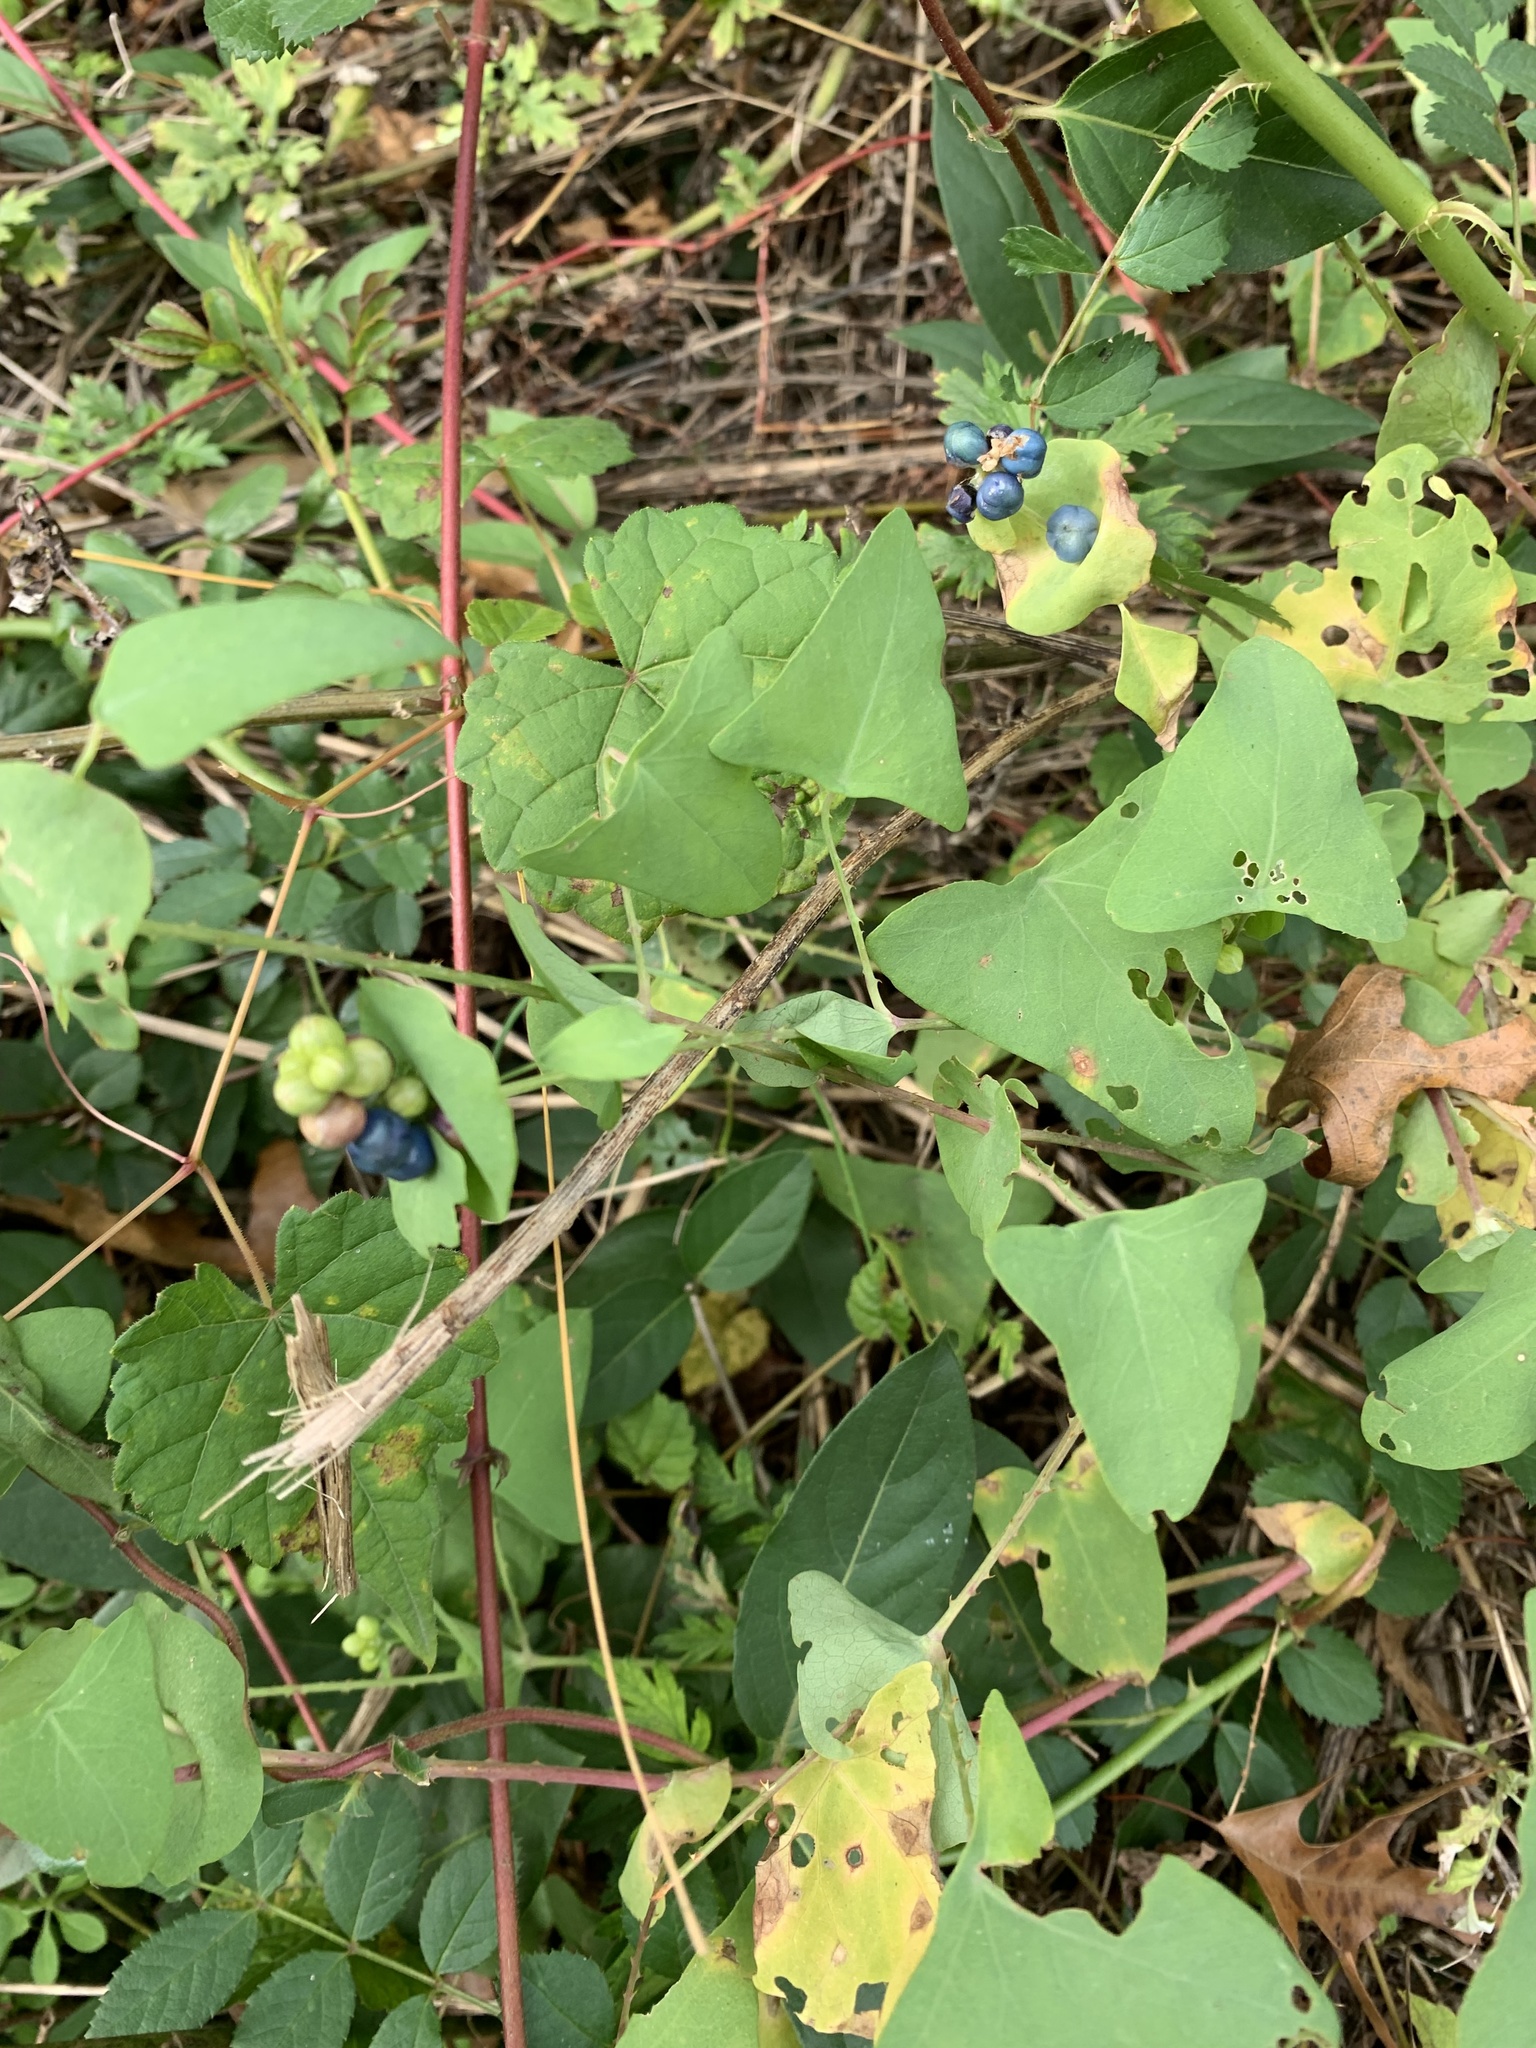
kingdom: Plantae
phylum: Tracheophyta
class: Magnoliopsida
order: Caryophyllales
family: Polygonaceae
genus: Persicaria
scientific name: Persicaria perfoliata
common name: Asiatic tearthumb
